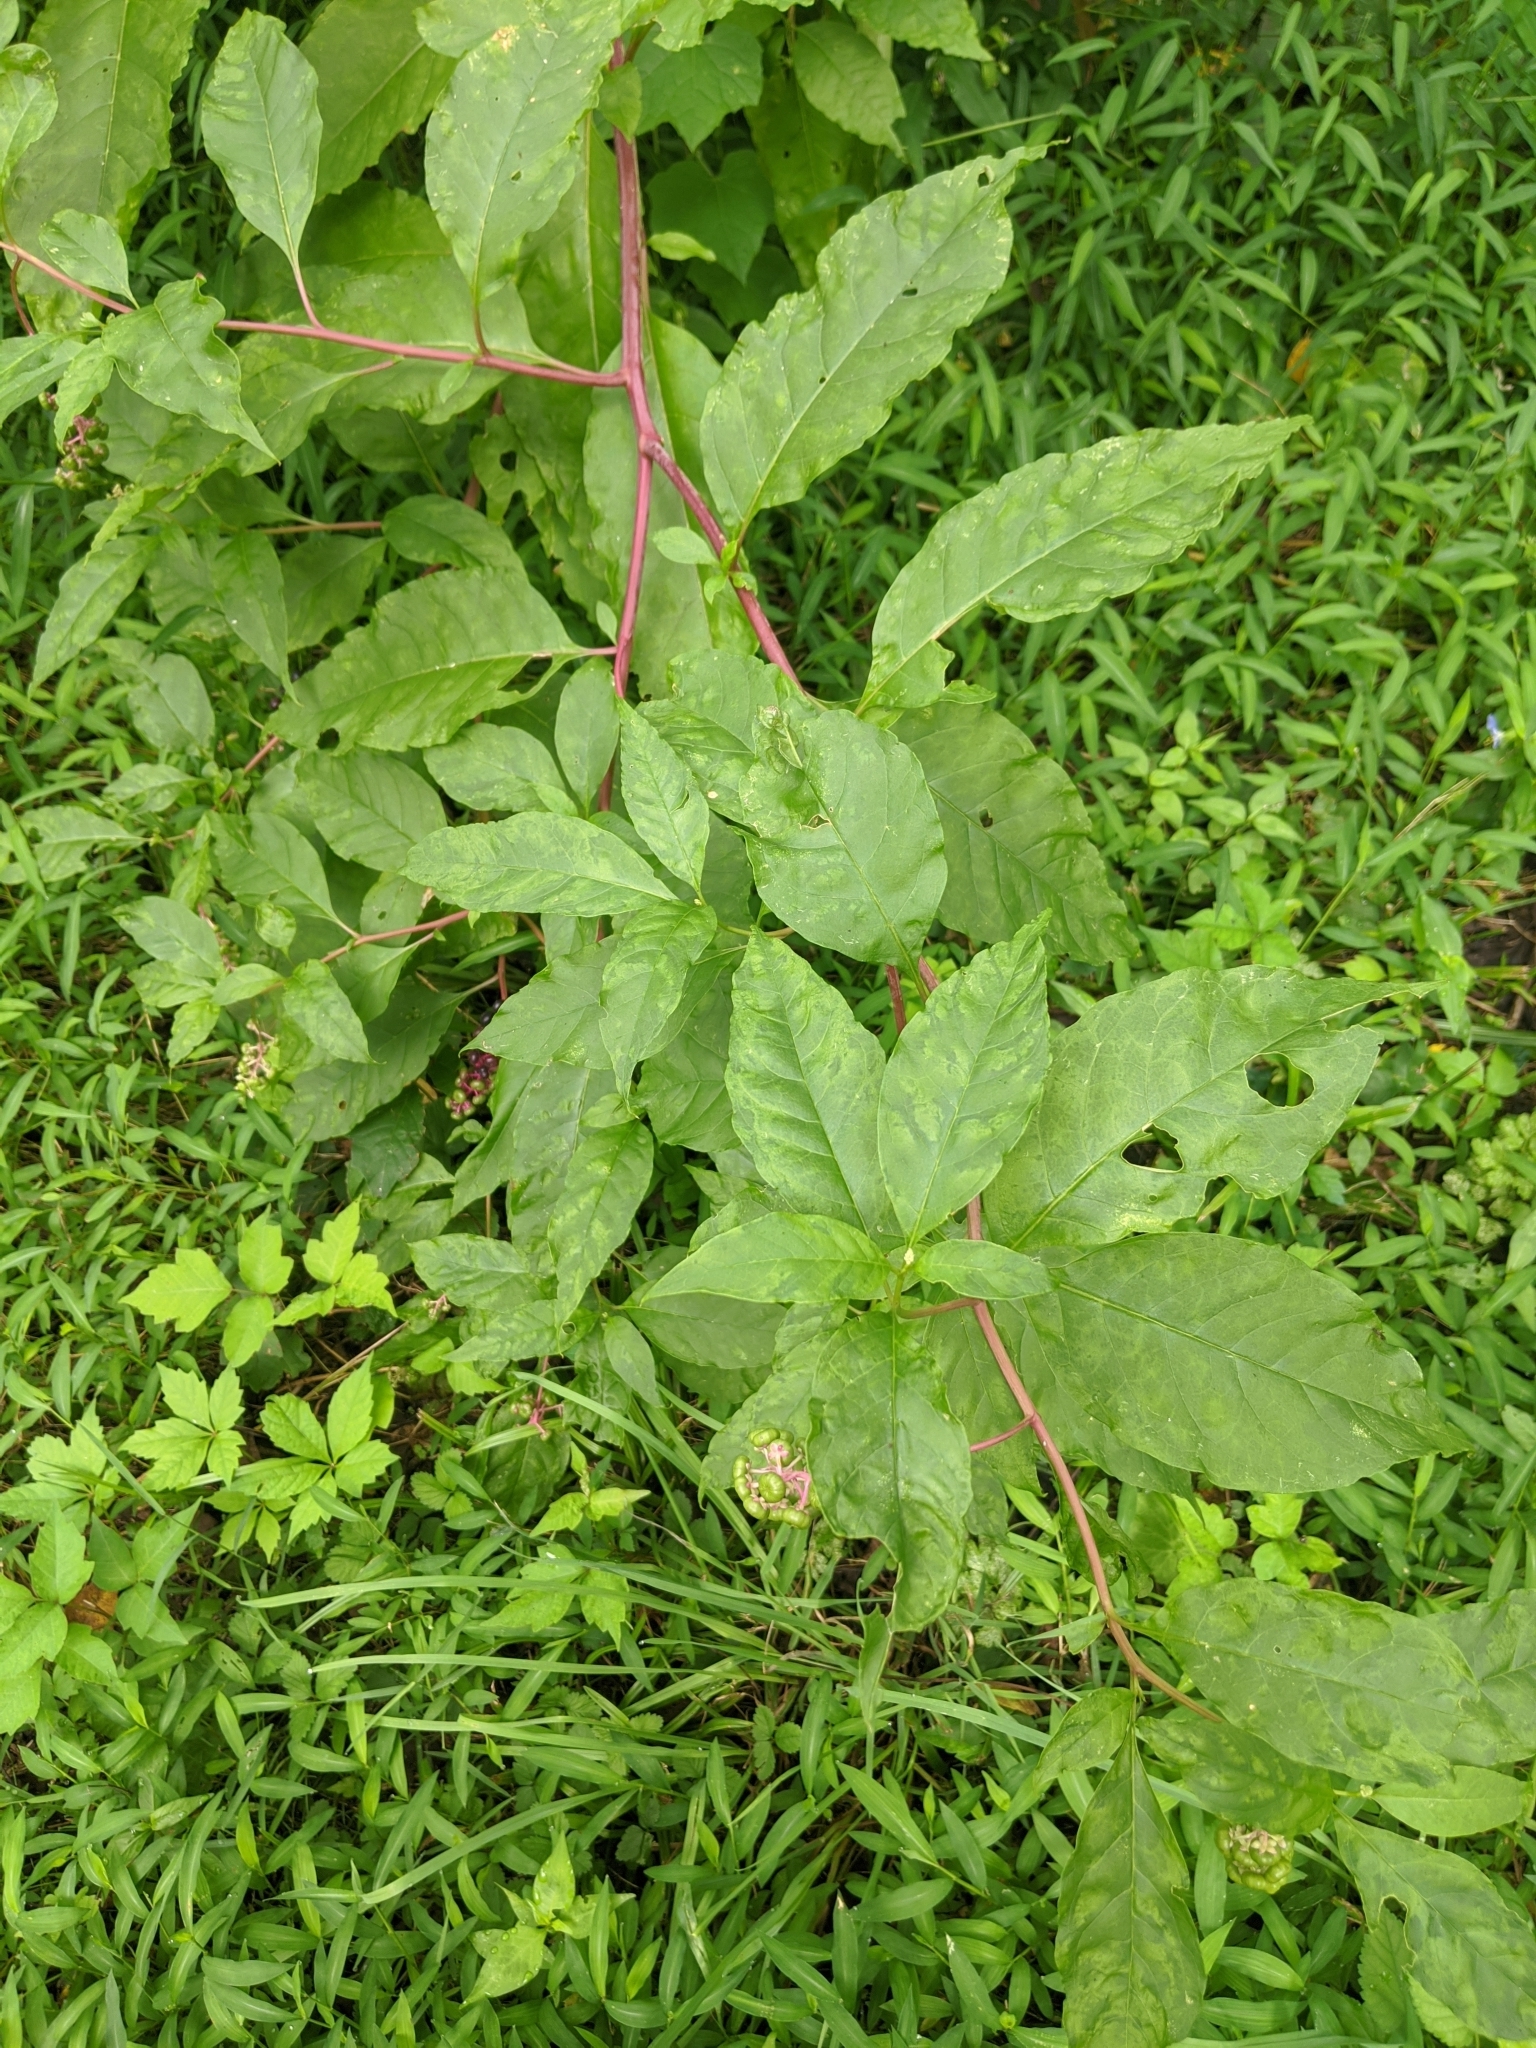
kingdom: Viruses
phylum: Pisuviricota
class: Stelpaviricetes
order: Patatavirales
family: Potyviridae
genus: Potyvirus
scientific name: Potyvirus Pokeweed mosaic virus
